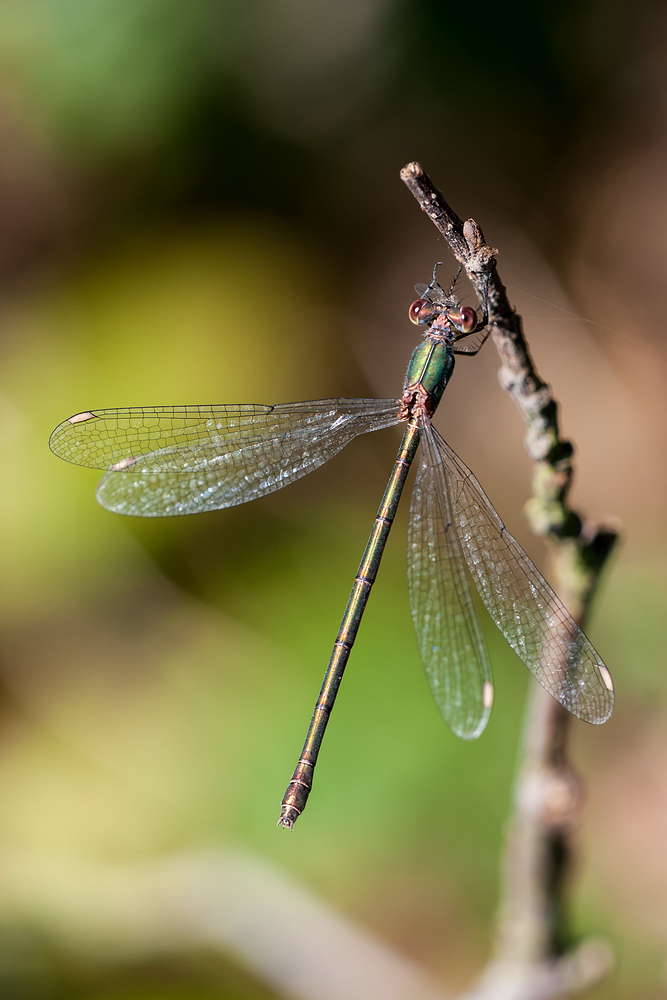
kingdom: Animalia
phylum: Arthropoda
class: Insecta
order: Odonata
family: Lestidae
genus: Chalcolestes
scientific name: Chalcolestes viridis
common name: Green emerald damselfly
